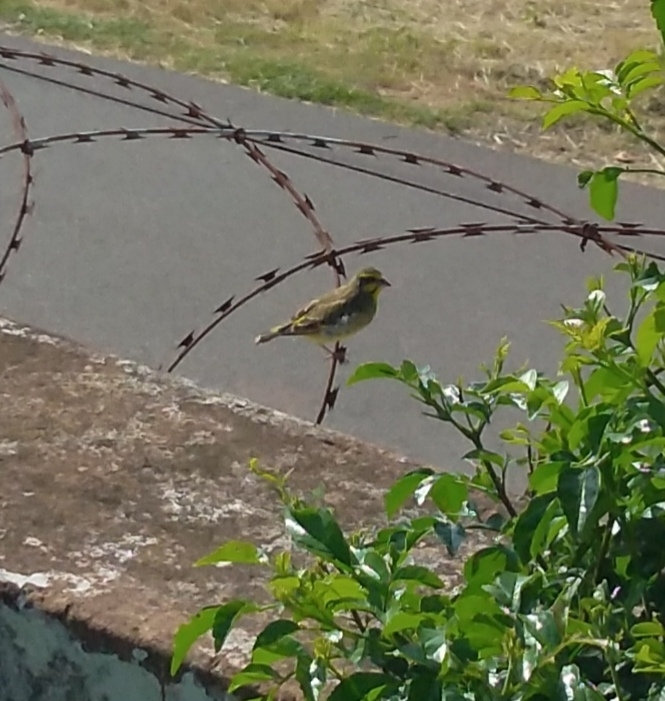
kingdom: Animalia
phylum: Chordata
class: Aves
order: Passeriformes
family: Fringillidae
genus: Crithagra
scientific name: Crithagra mozambica
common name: Yellow-fronted canary
